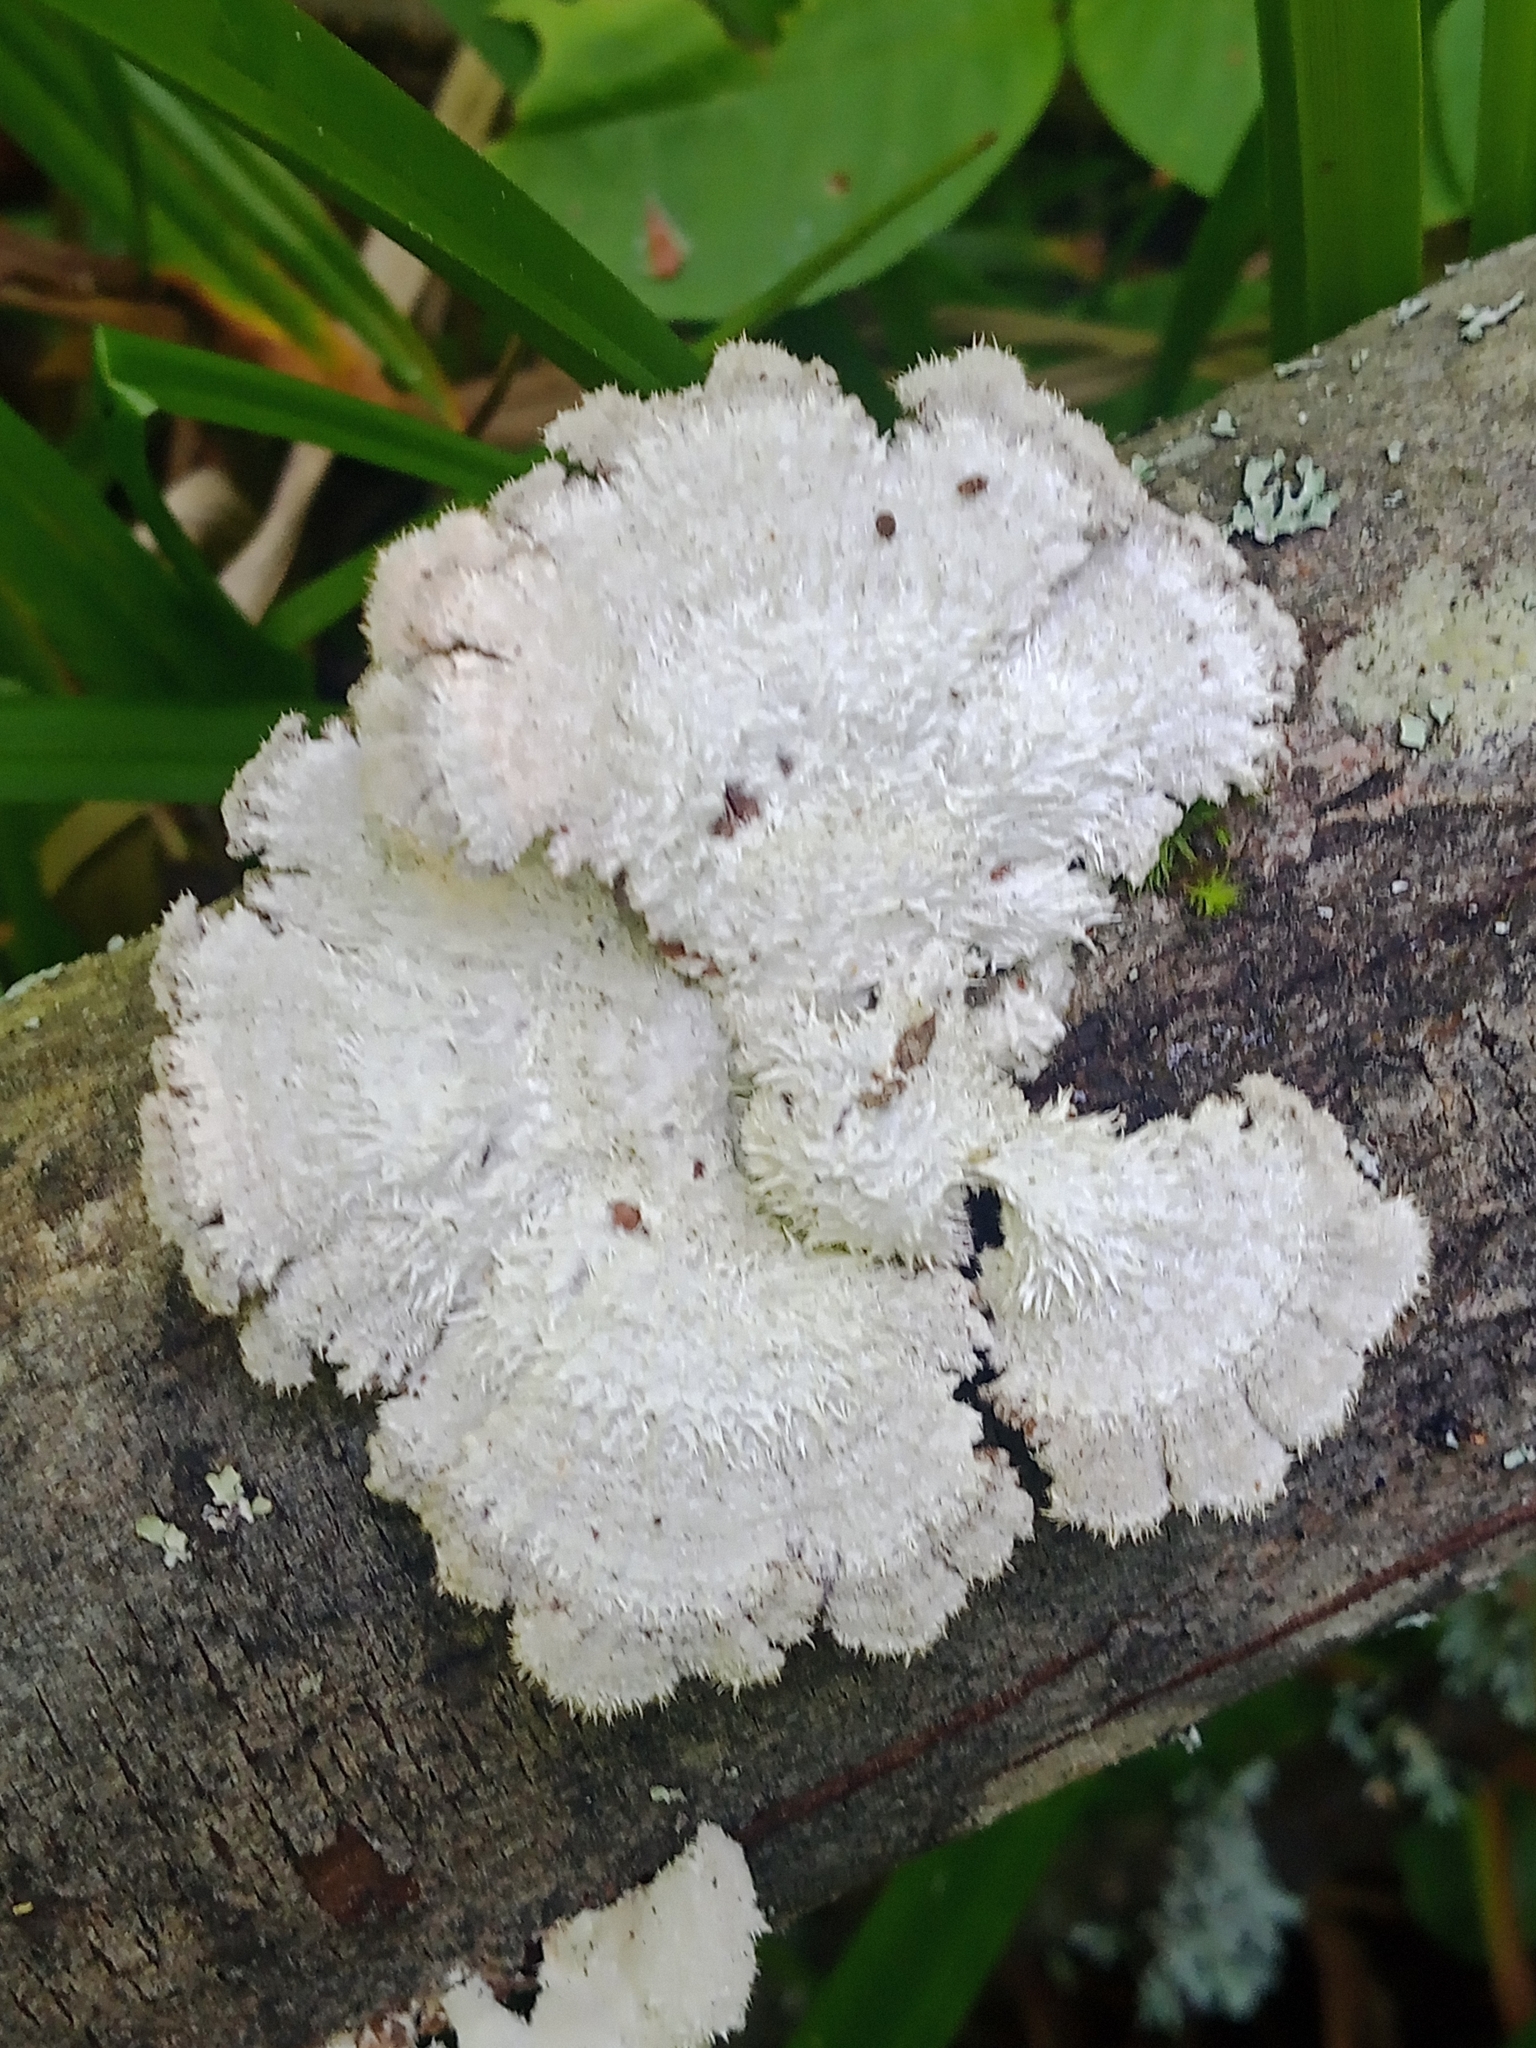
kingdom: Fungi
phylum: Basidiomycota
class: Agaricomycetes
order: Agaricales
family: Schizophyllaceae
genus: Schizophyllum
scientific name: Schizophyllum commune
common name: Common porecrust
